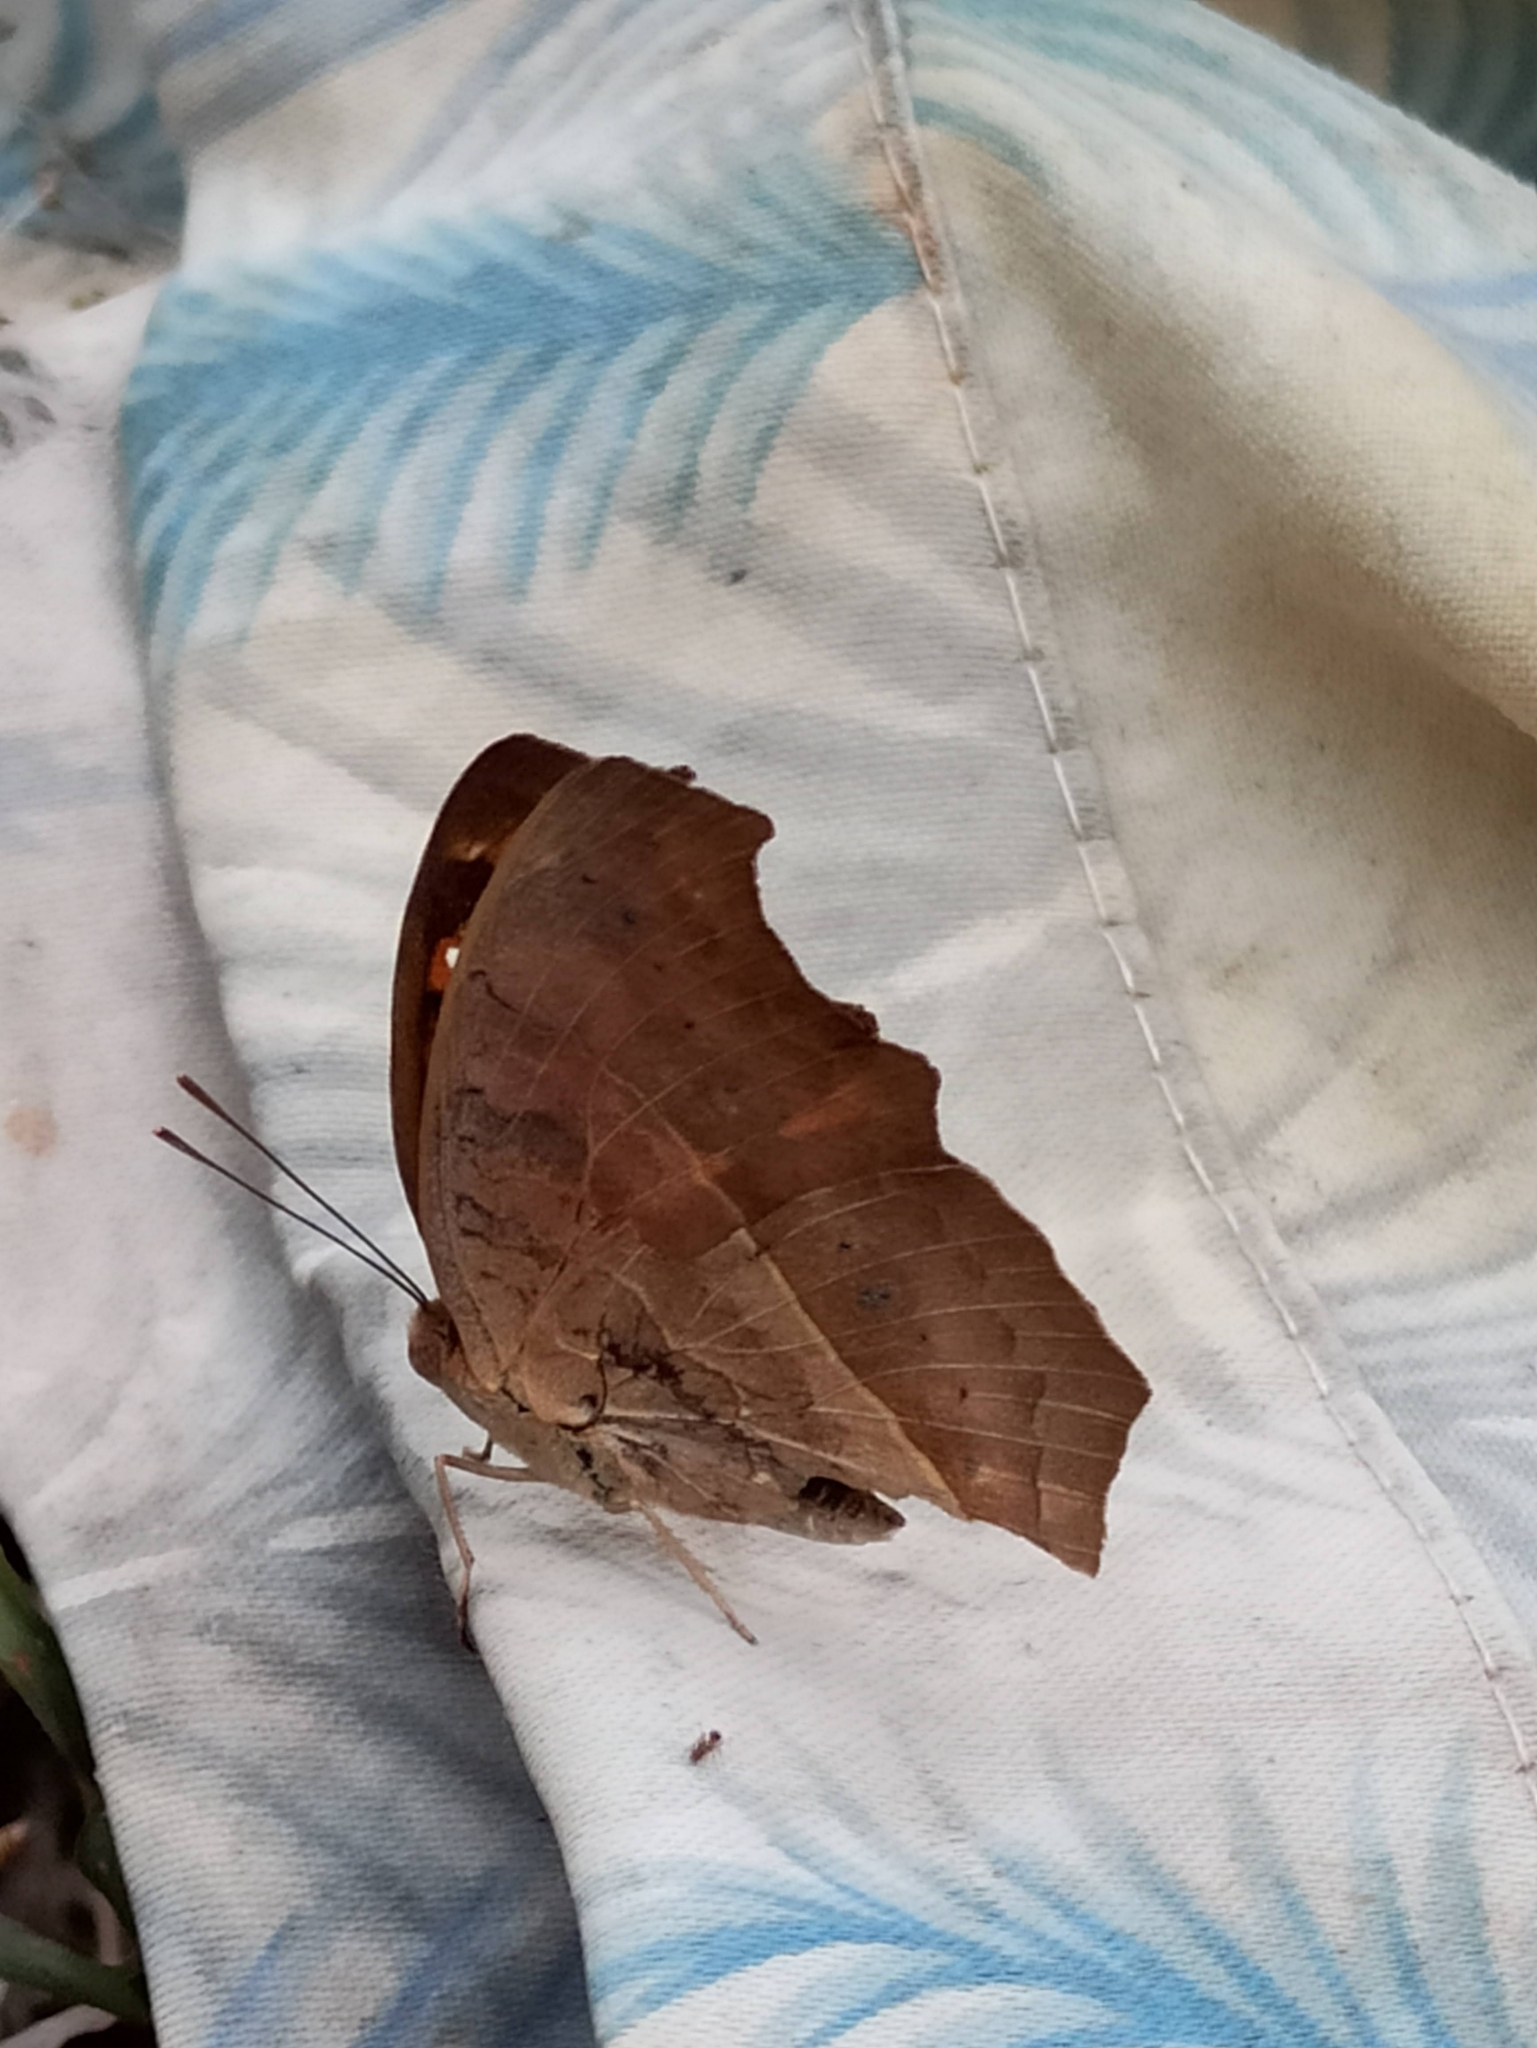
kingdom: Animalia
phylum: Arthropoda
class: Insecta
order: Lepidoptera
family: Nymphalidae
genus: Junonia
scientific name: Junonia iphita
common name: Chocolate pansy
